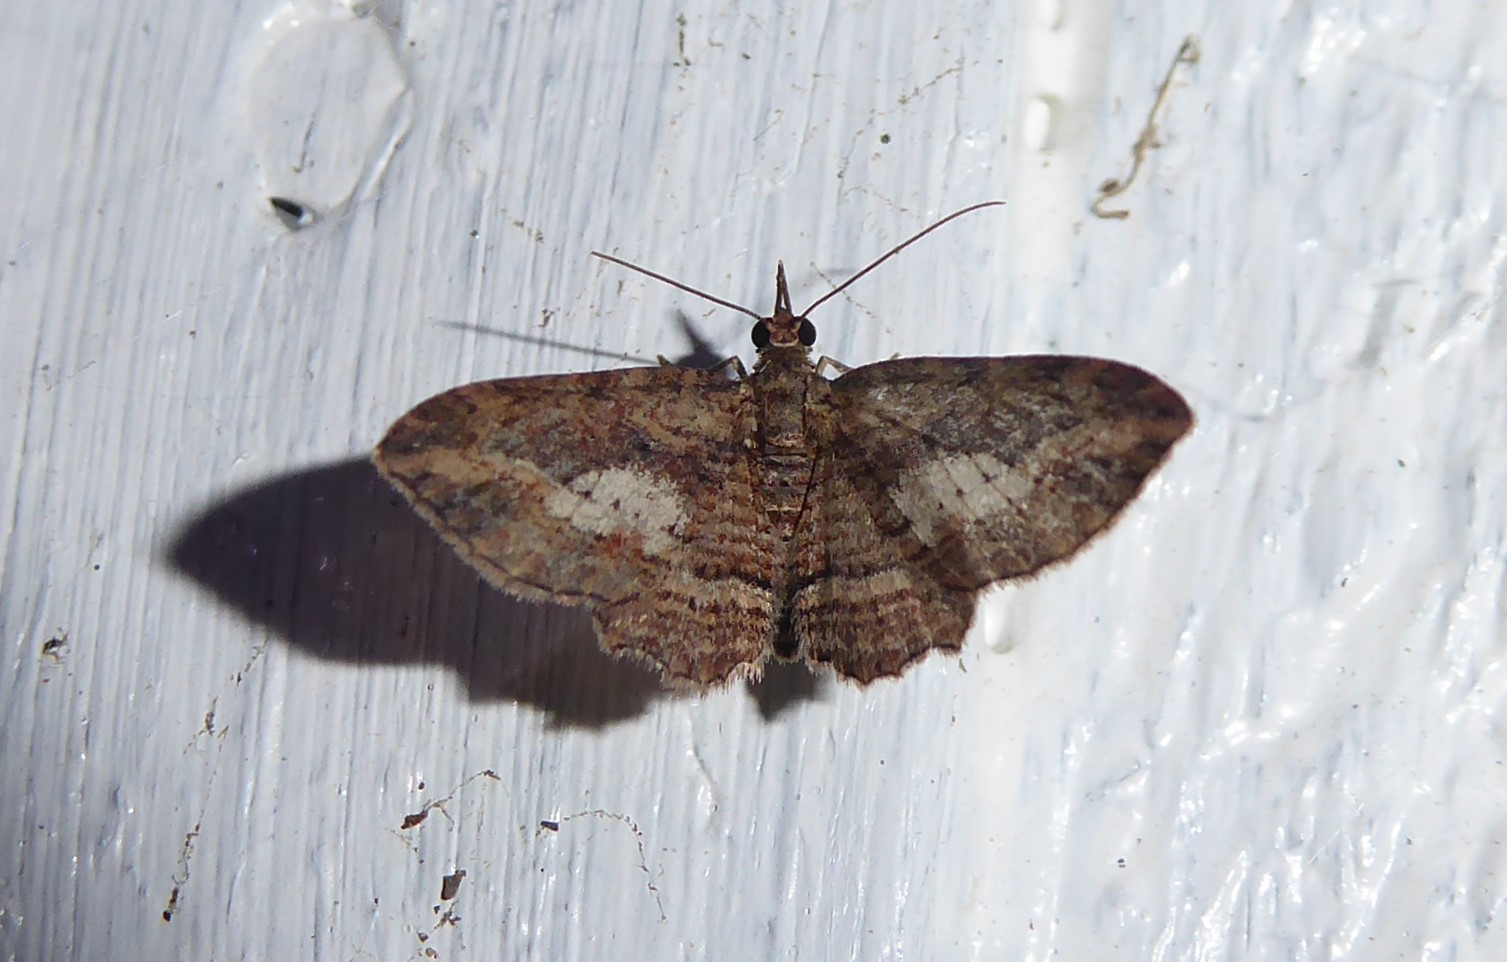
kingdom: Animalia
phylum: Arthropoda
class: Insecta
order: Lepidoptera
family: Geometridae
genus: Chloroclystis
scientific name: Chloroclystis filata
